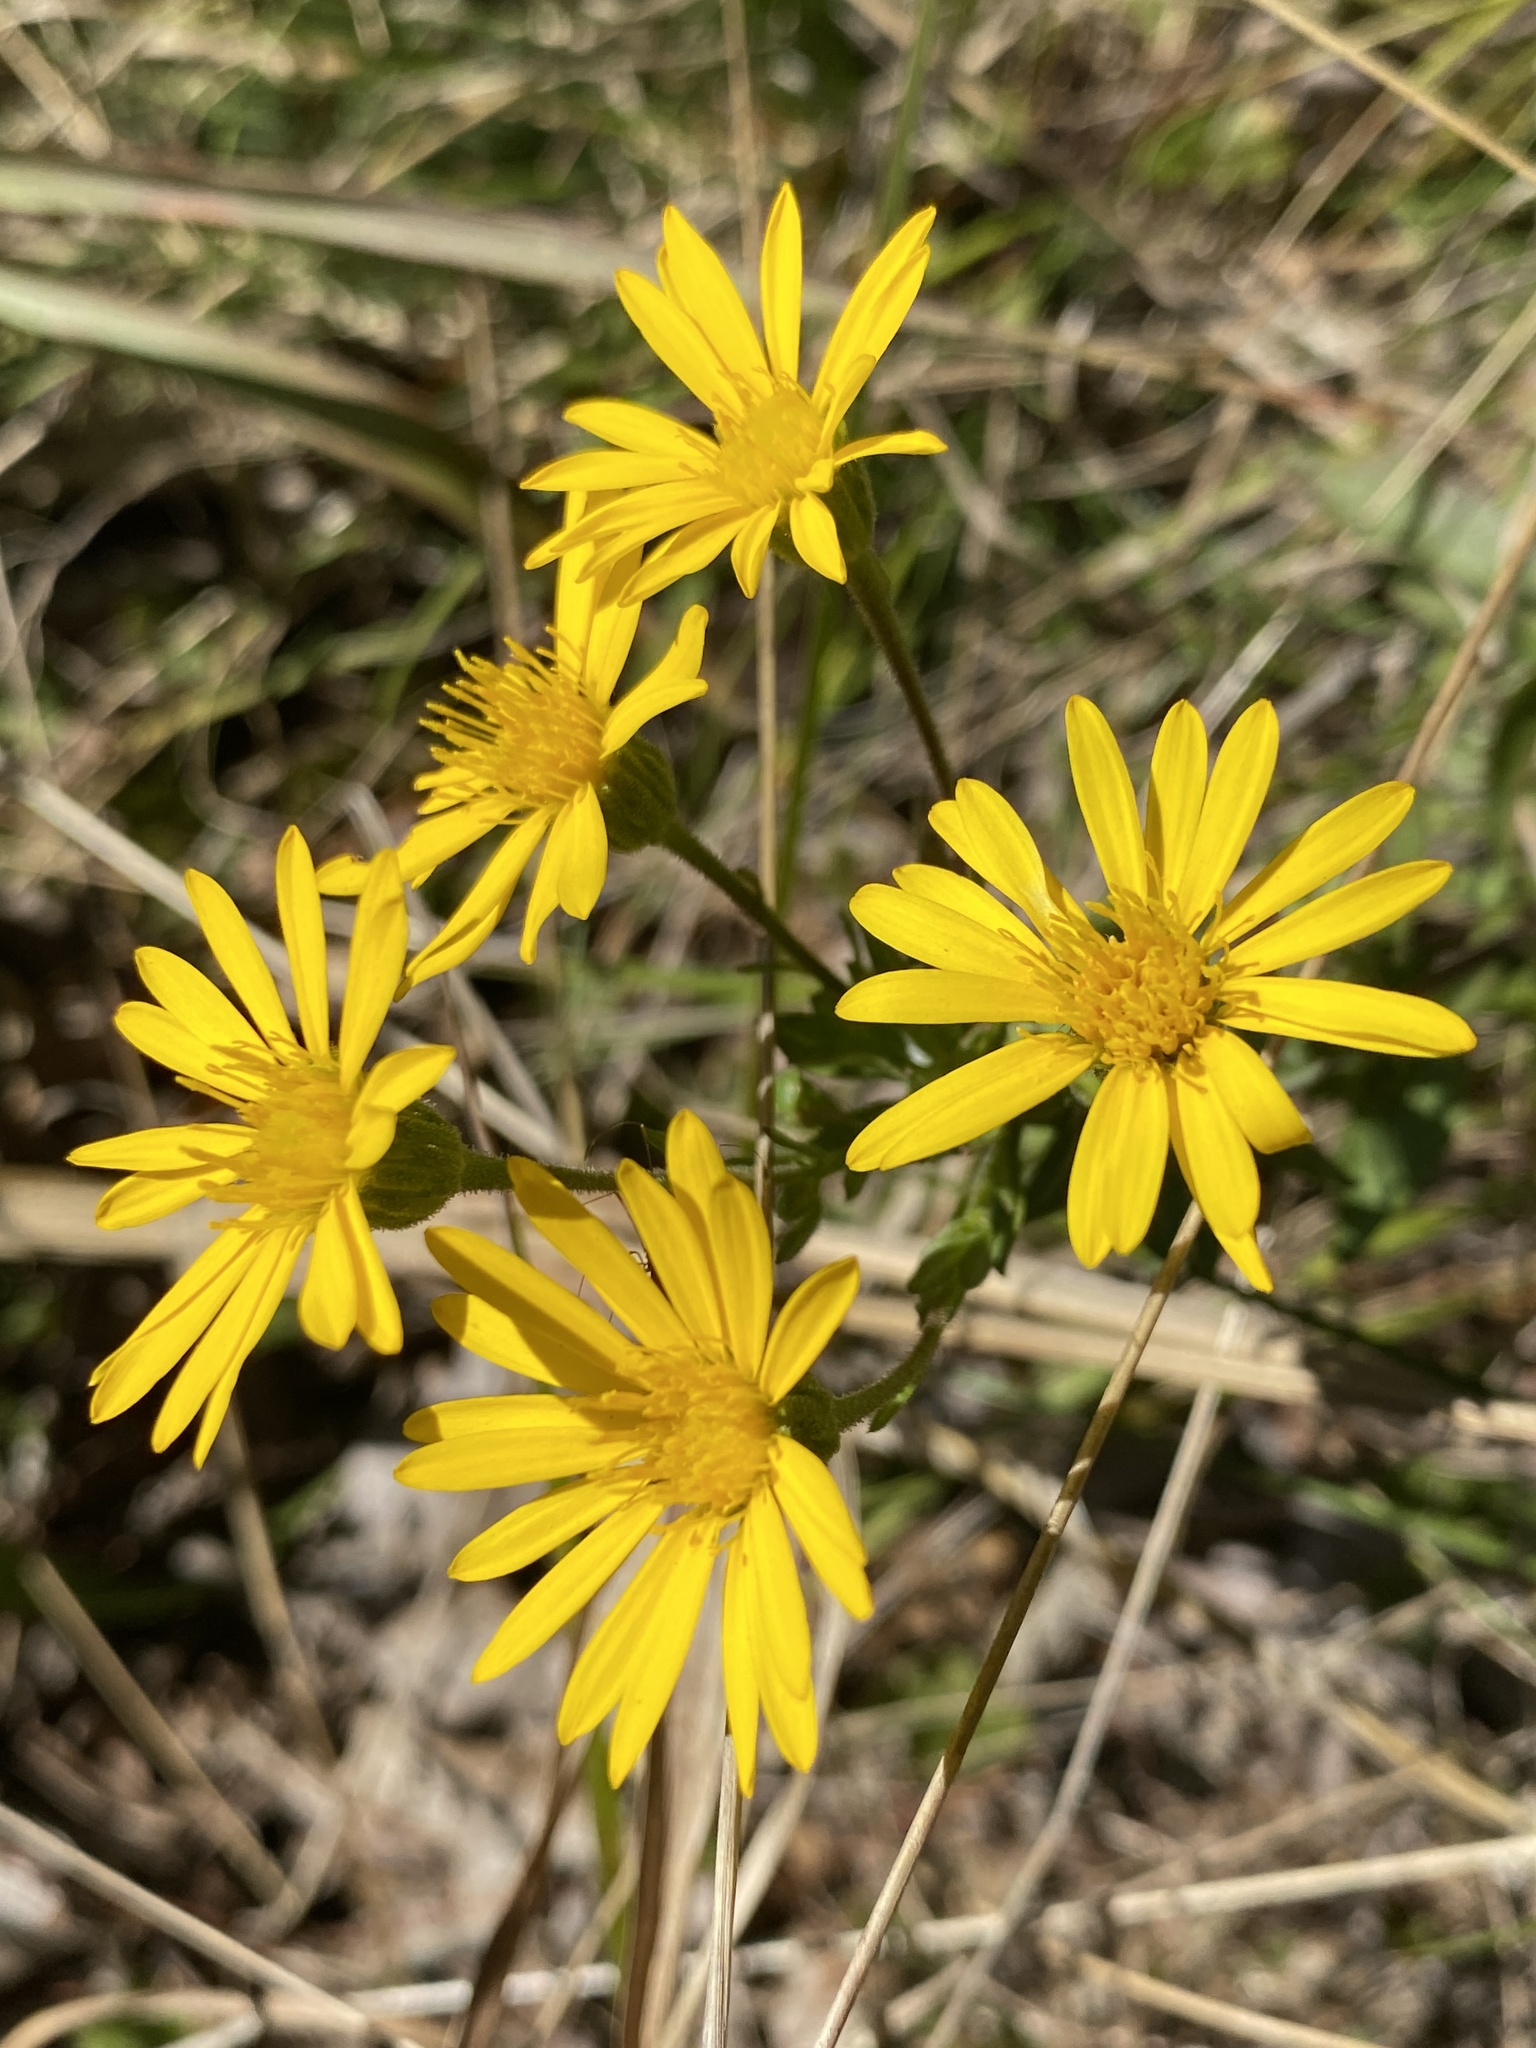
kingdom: Plantae
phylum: Tracheophyta
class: Magnoliopsida
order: Asterales
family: Asteraceae
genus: Chrysopsis
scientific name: Chrysopsis mariana
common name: Maryland golden-aster
